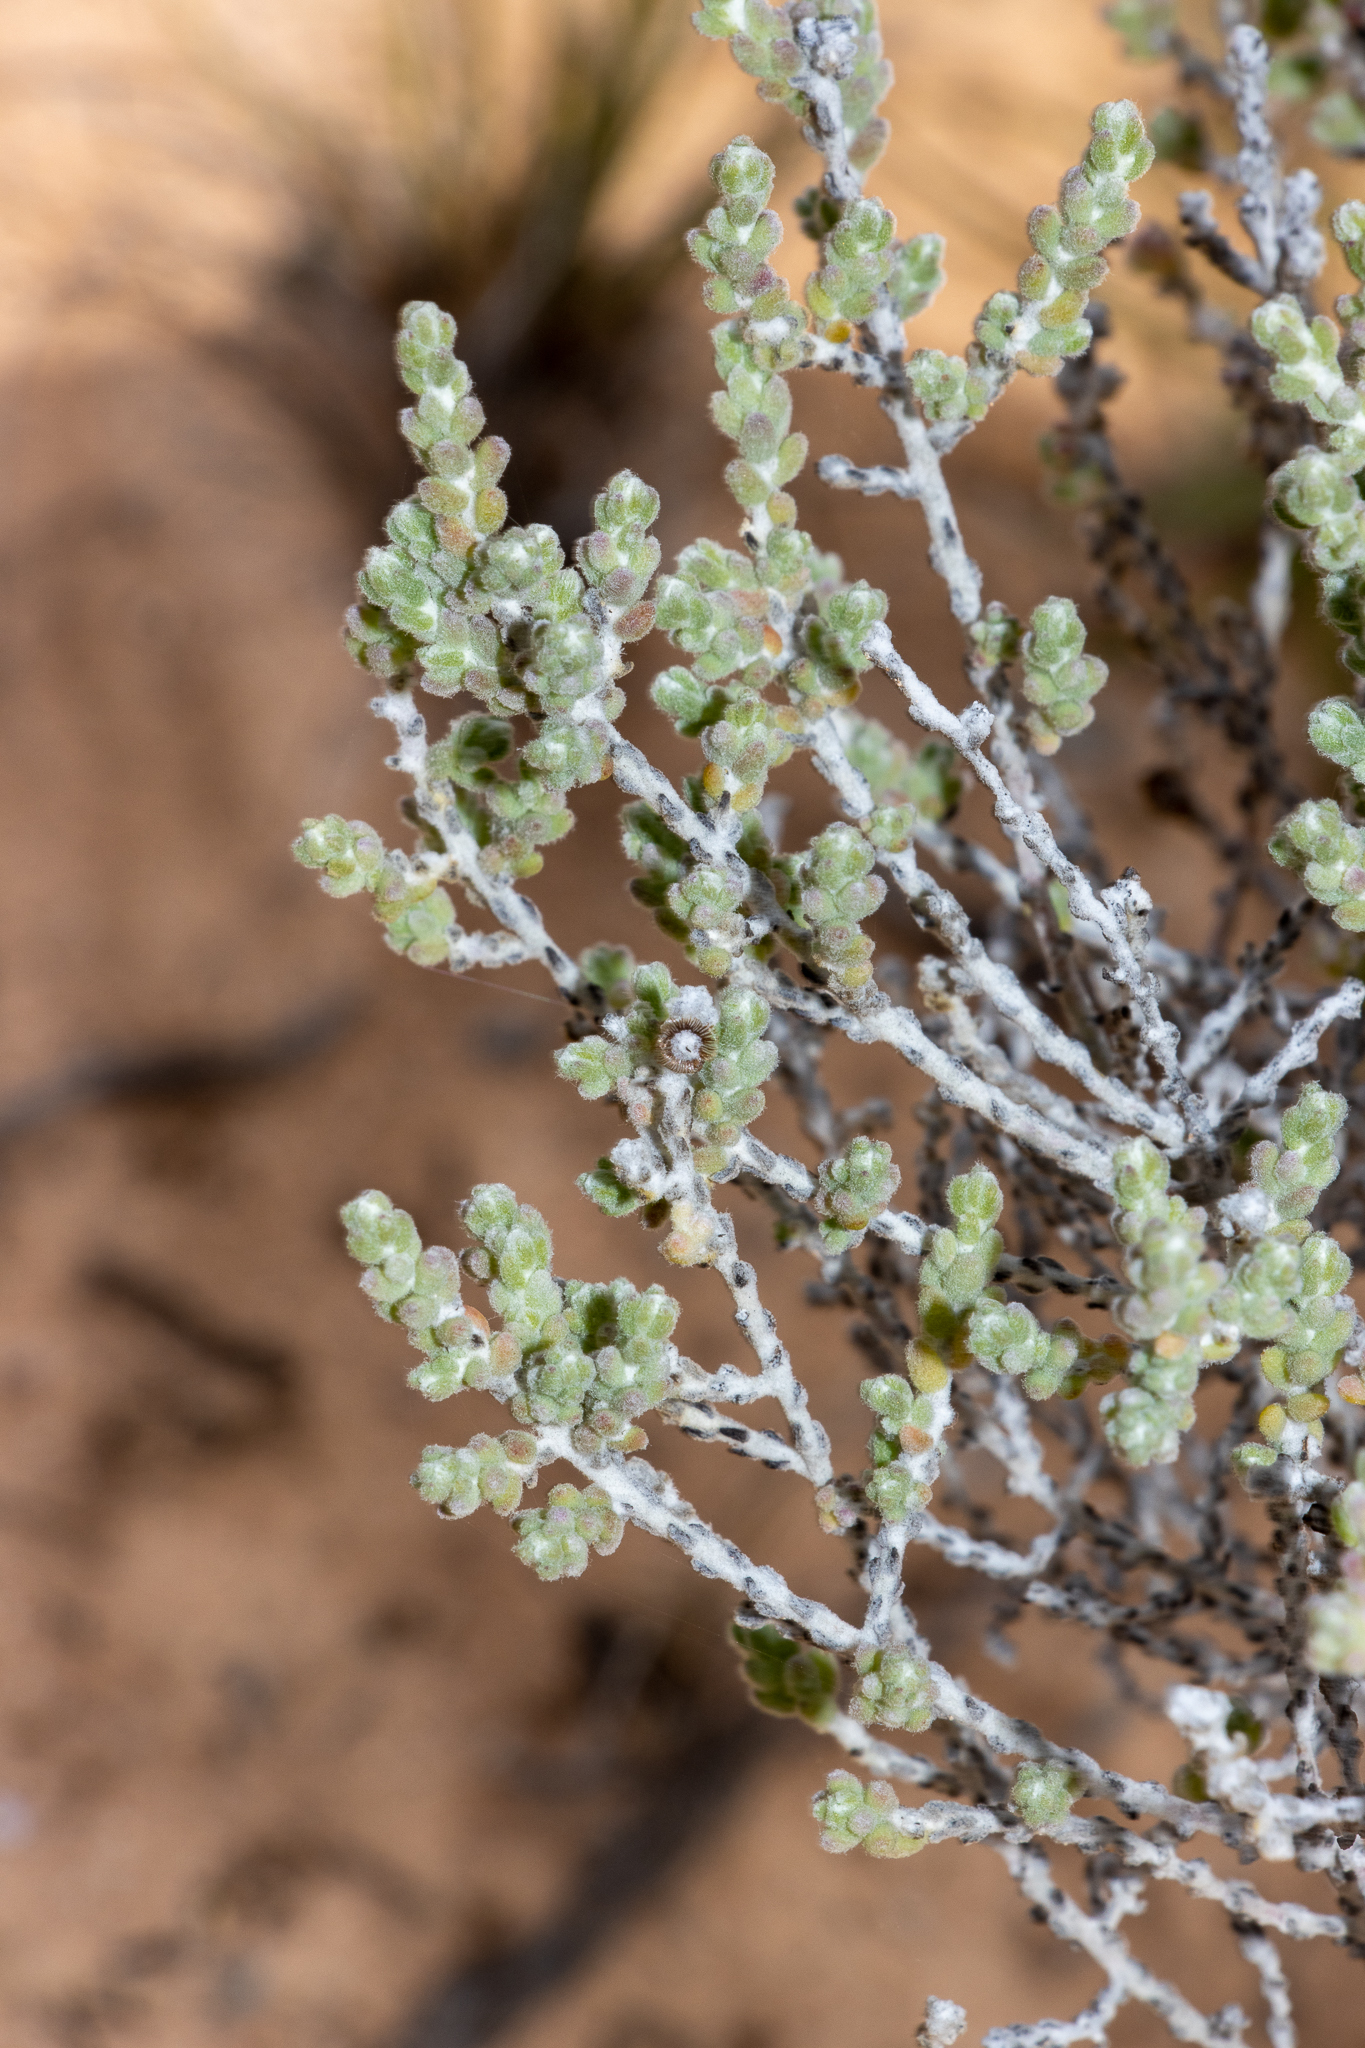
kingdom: Plantae
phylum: Tracheophyta
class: Magnoliopsida
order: Caryophyllales
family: Amaranthaceae
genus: Maireana
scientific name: Maireana radiata
